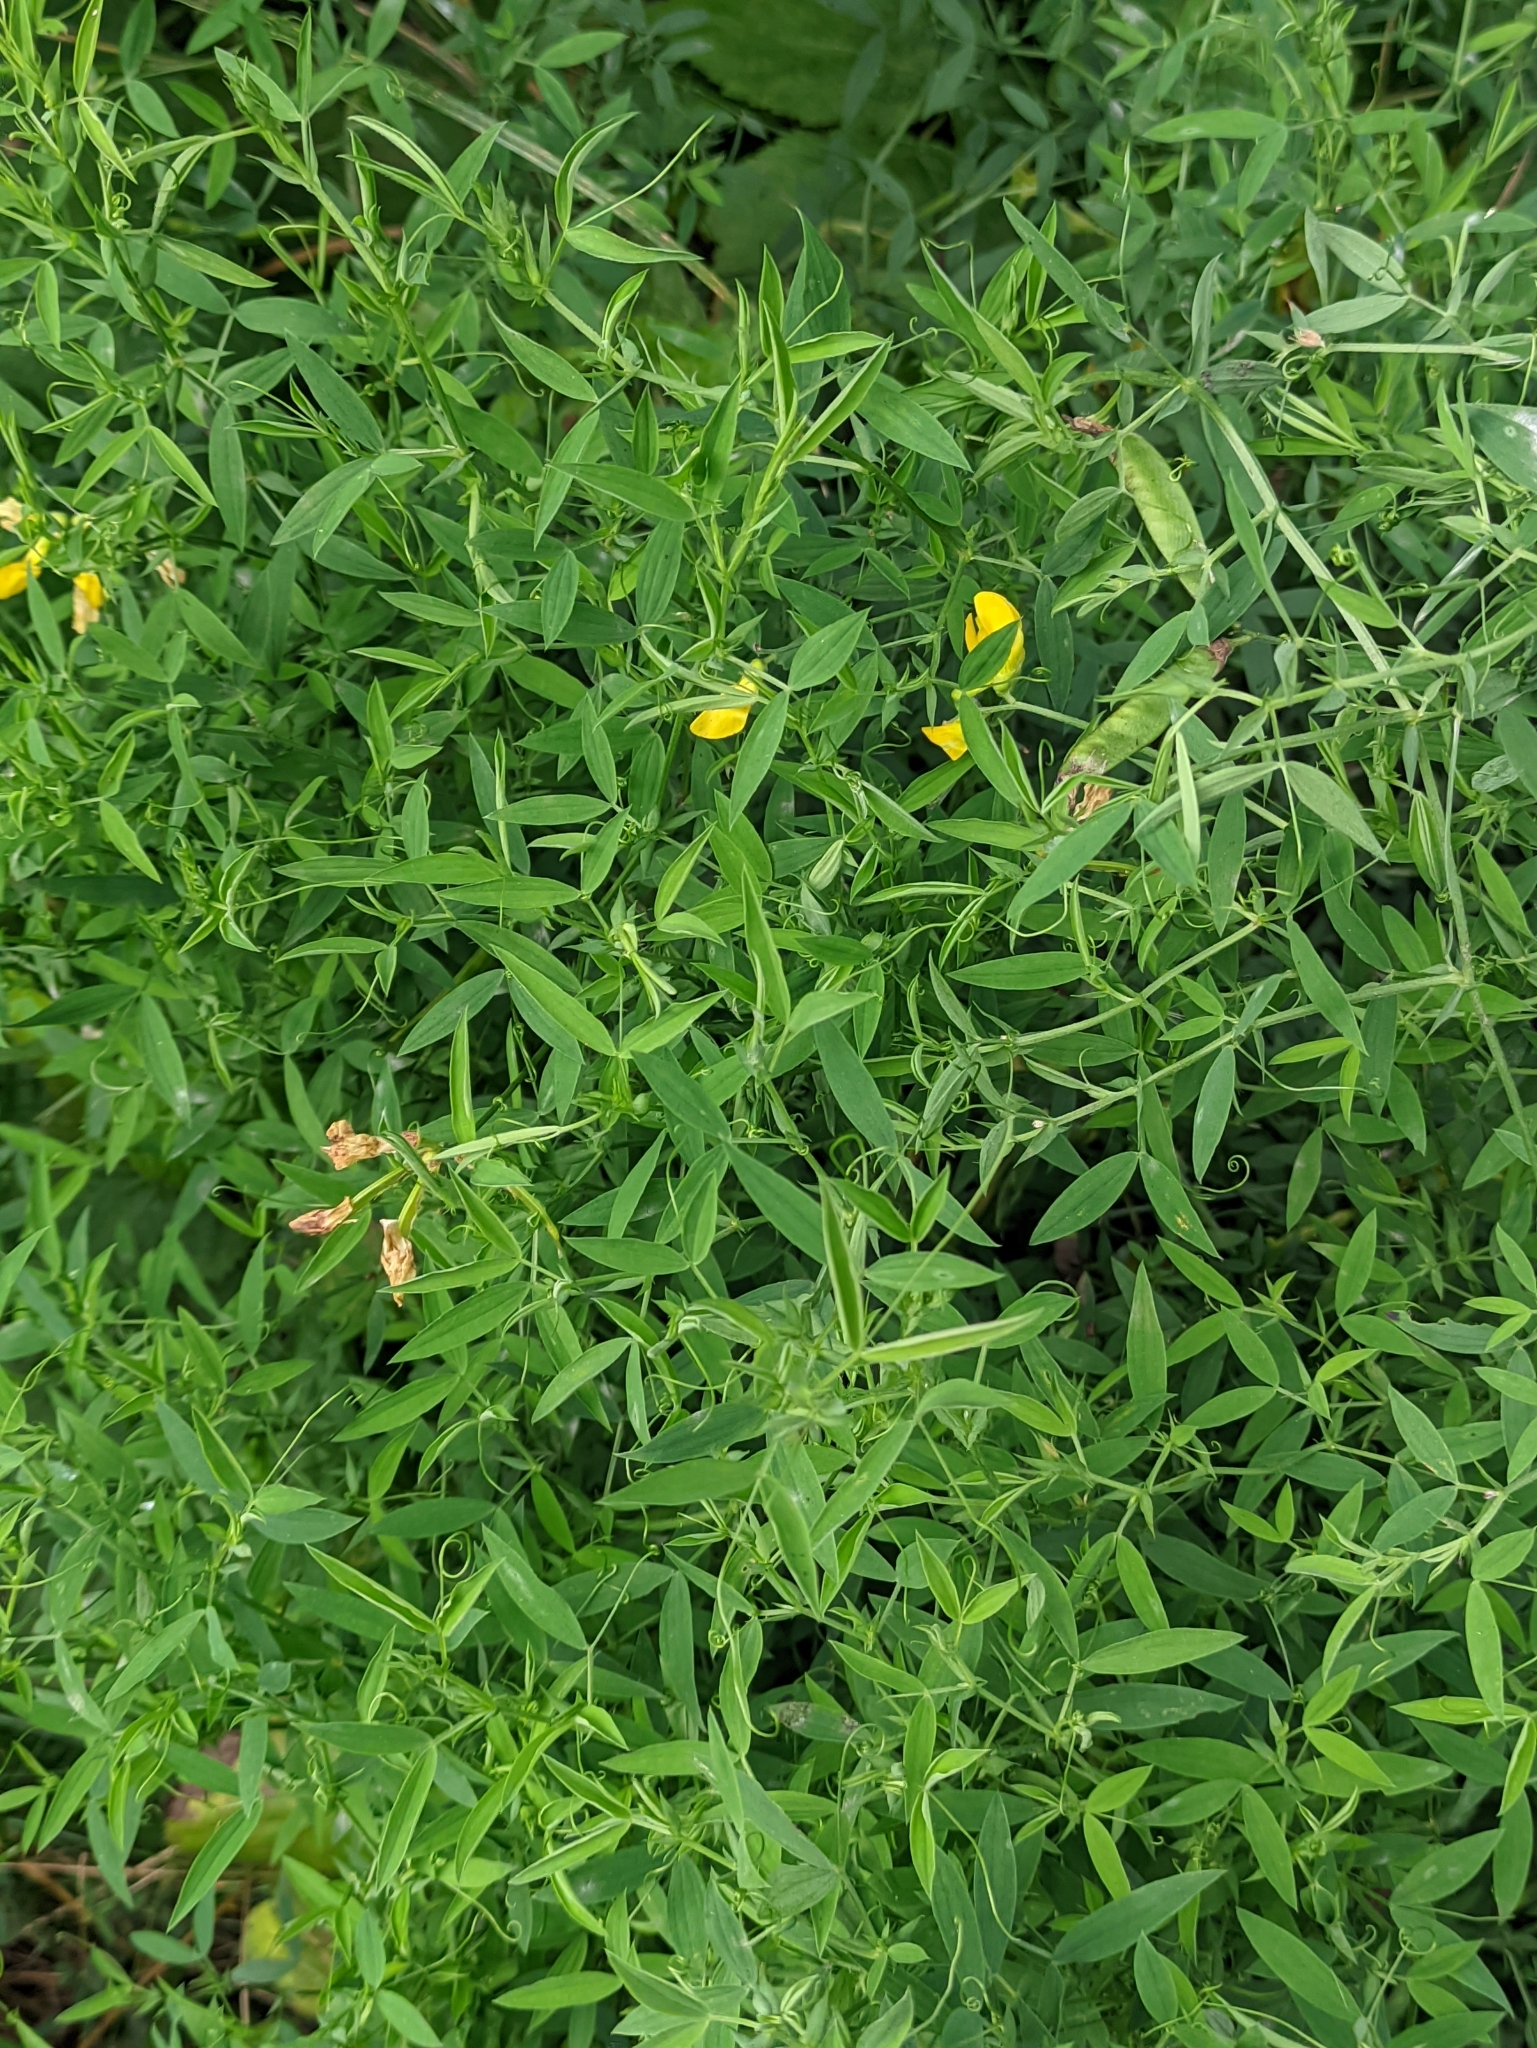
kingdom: Plantae
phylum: Tracheophyta
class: Magnoliopsida
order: Fabales
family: Fabaceae
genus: Lathyrus
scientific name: Lathyrus pratensis
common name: Meadow vetchling
